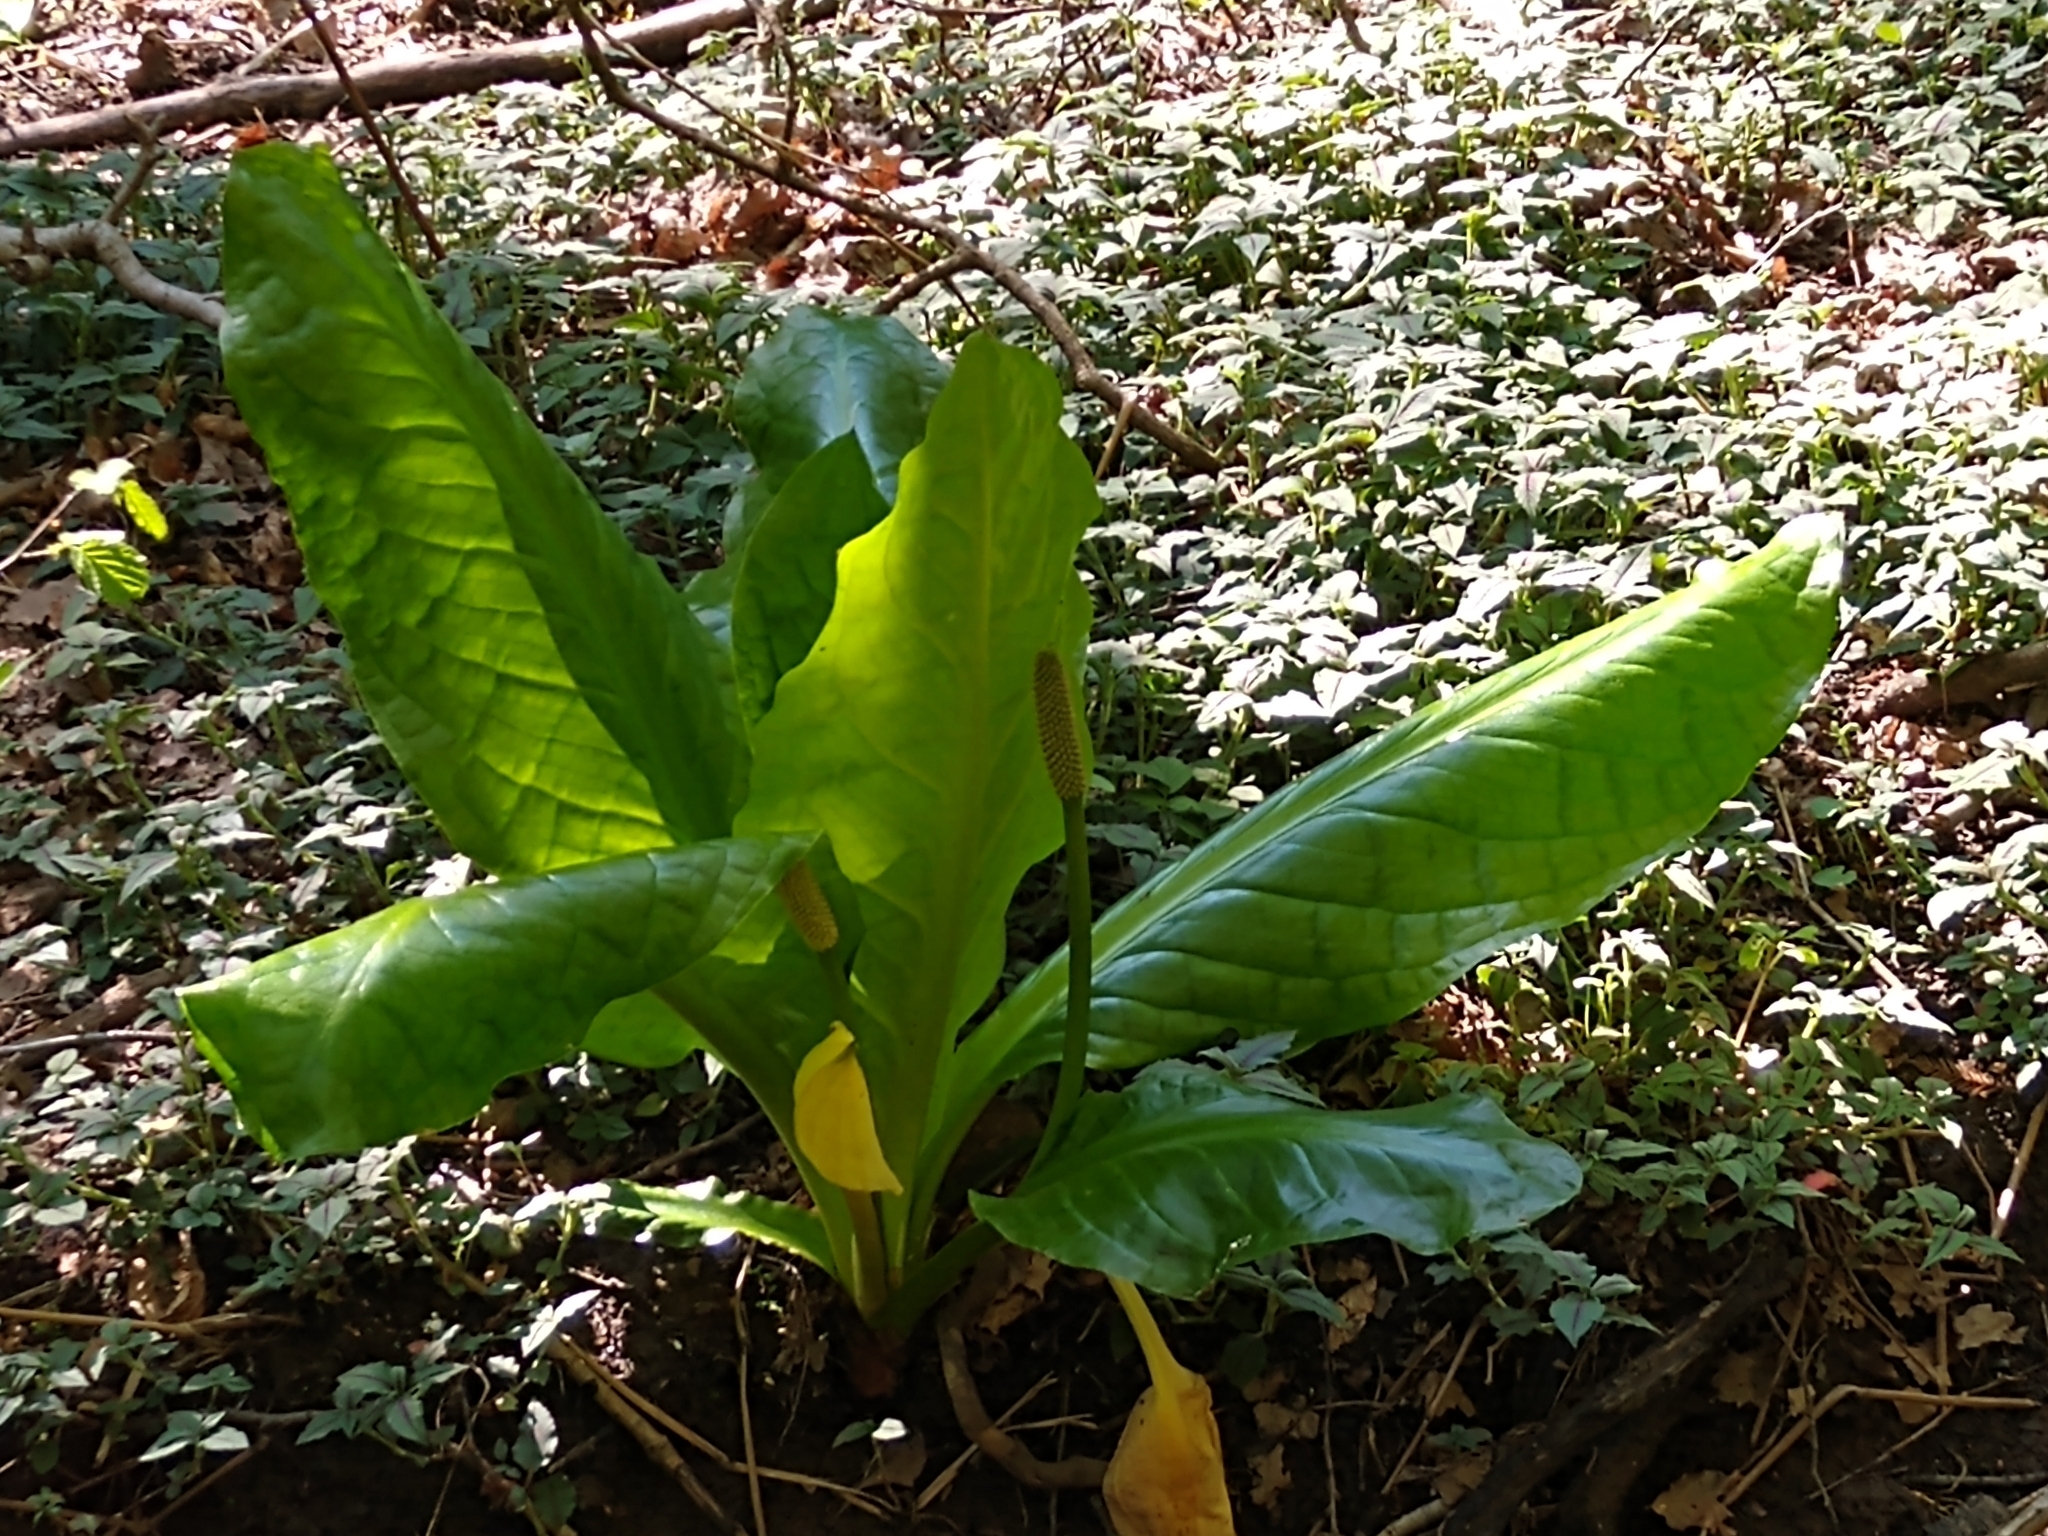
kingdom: Plantae
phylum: Tracheophyta
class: Liliopsida
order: Alismatales
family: Araceae
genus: Lysichiton
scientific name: Lysichiton americanus
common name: American skunk cabbage
